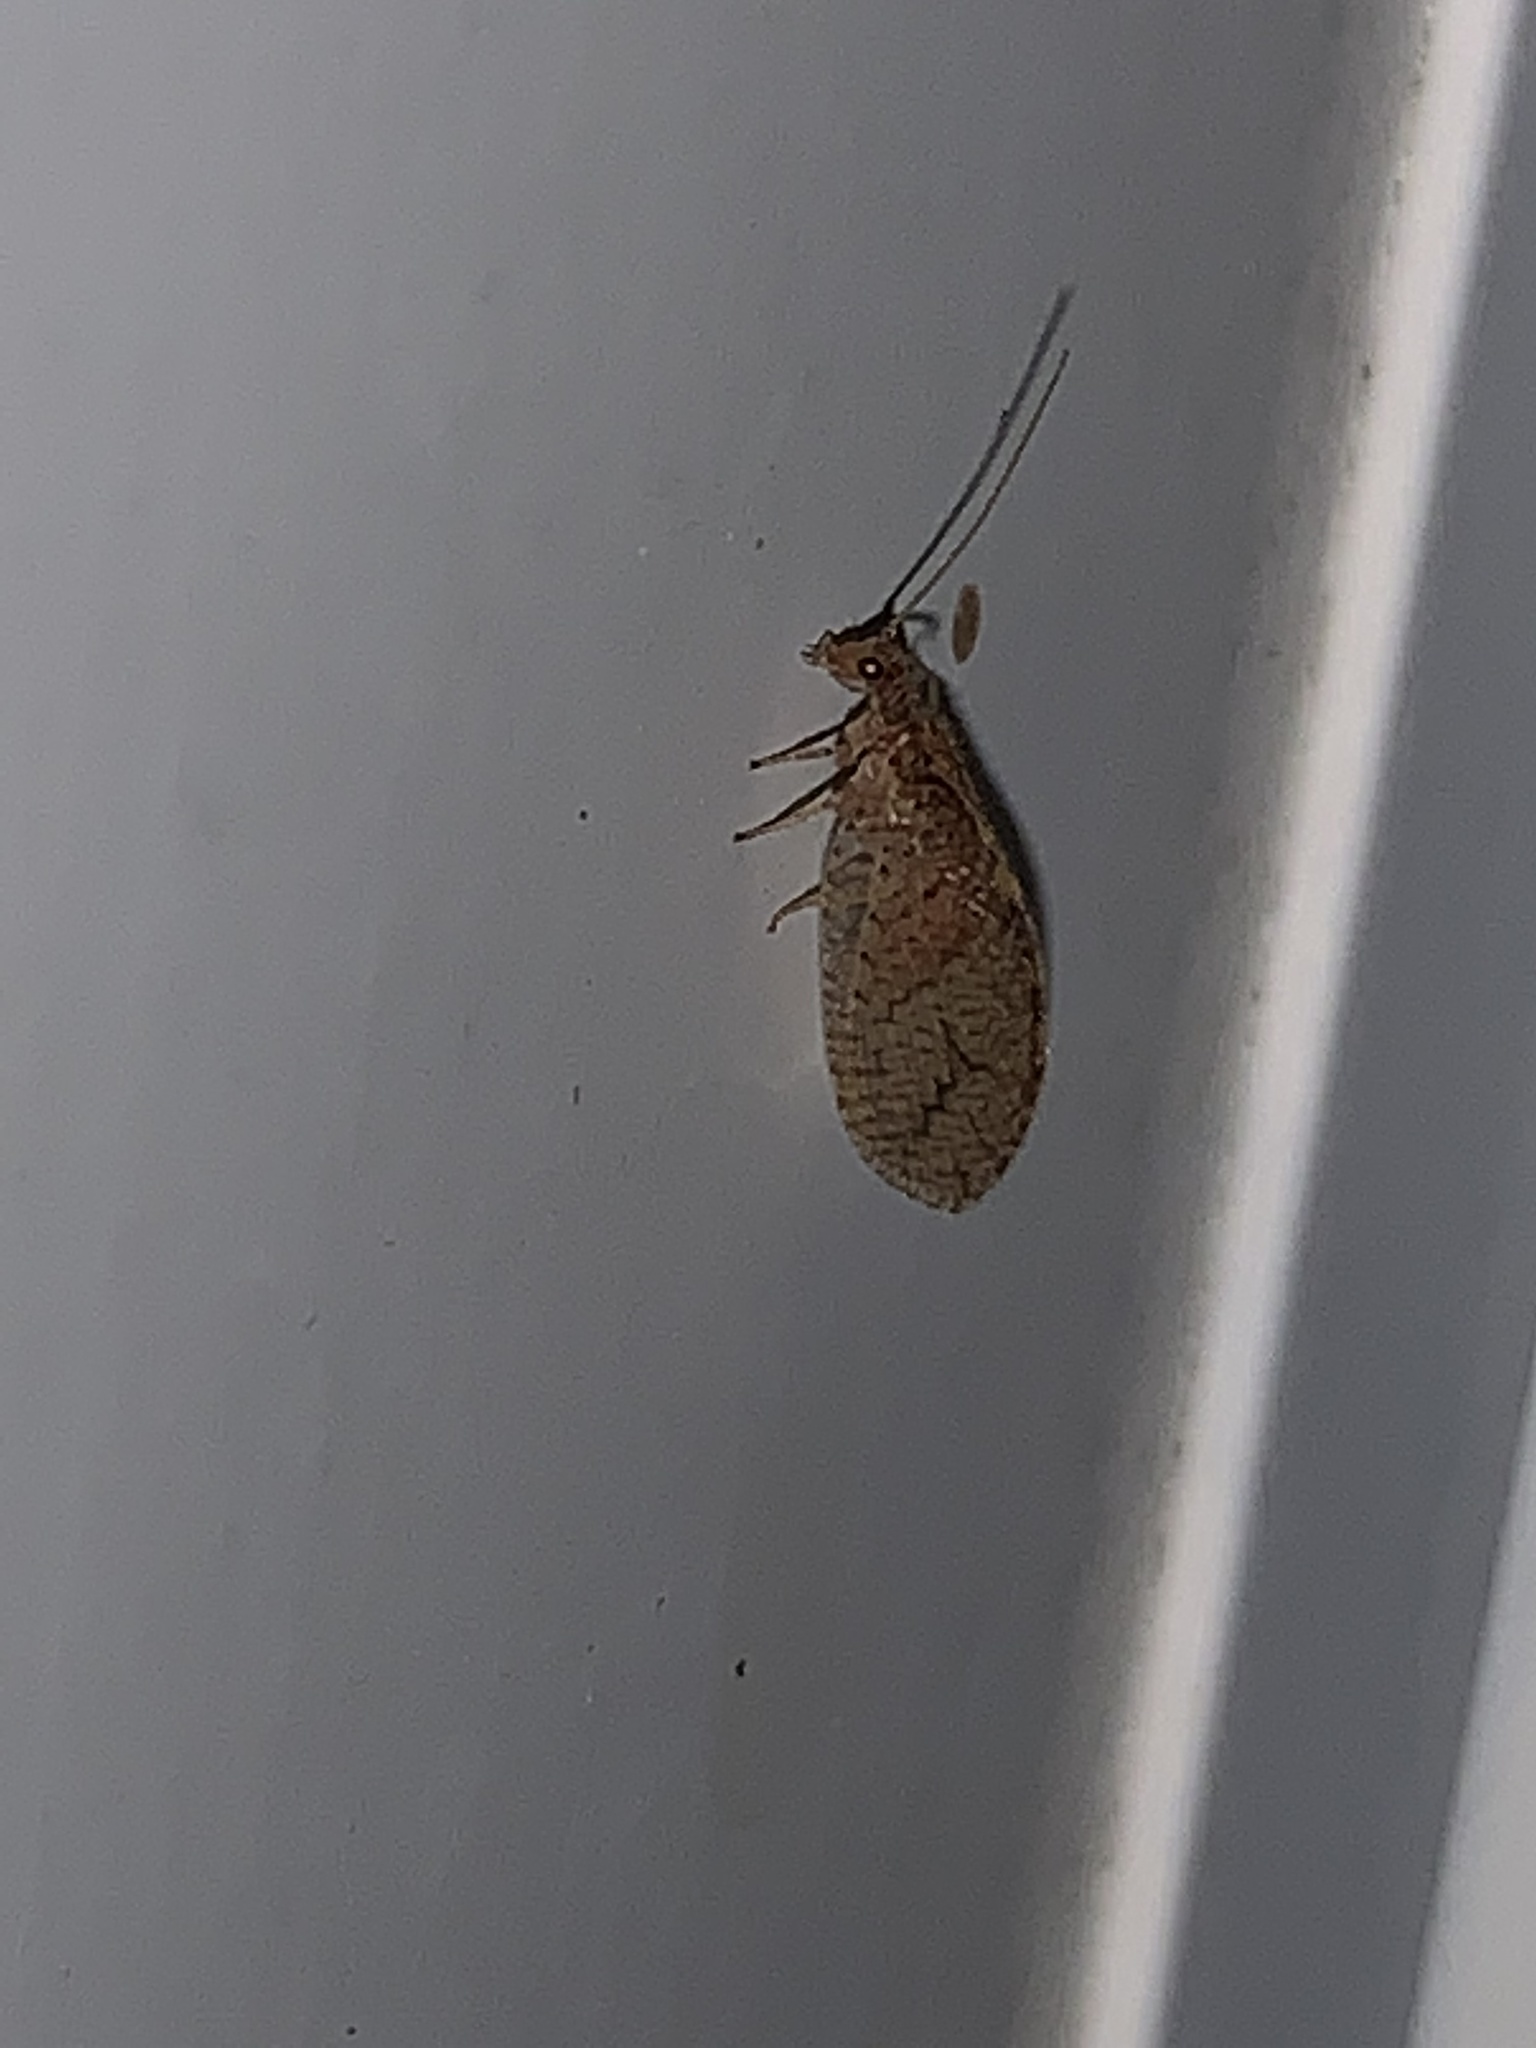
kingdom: Animalia
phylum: Arthropoda
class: Insecta
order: Neuroptera
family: Hemerobiidae
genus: Micromus
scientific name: Micromus posticus
